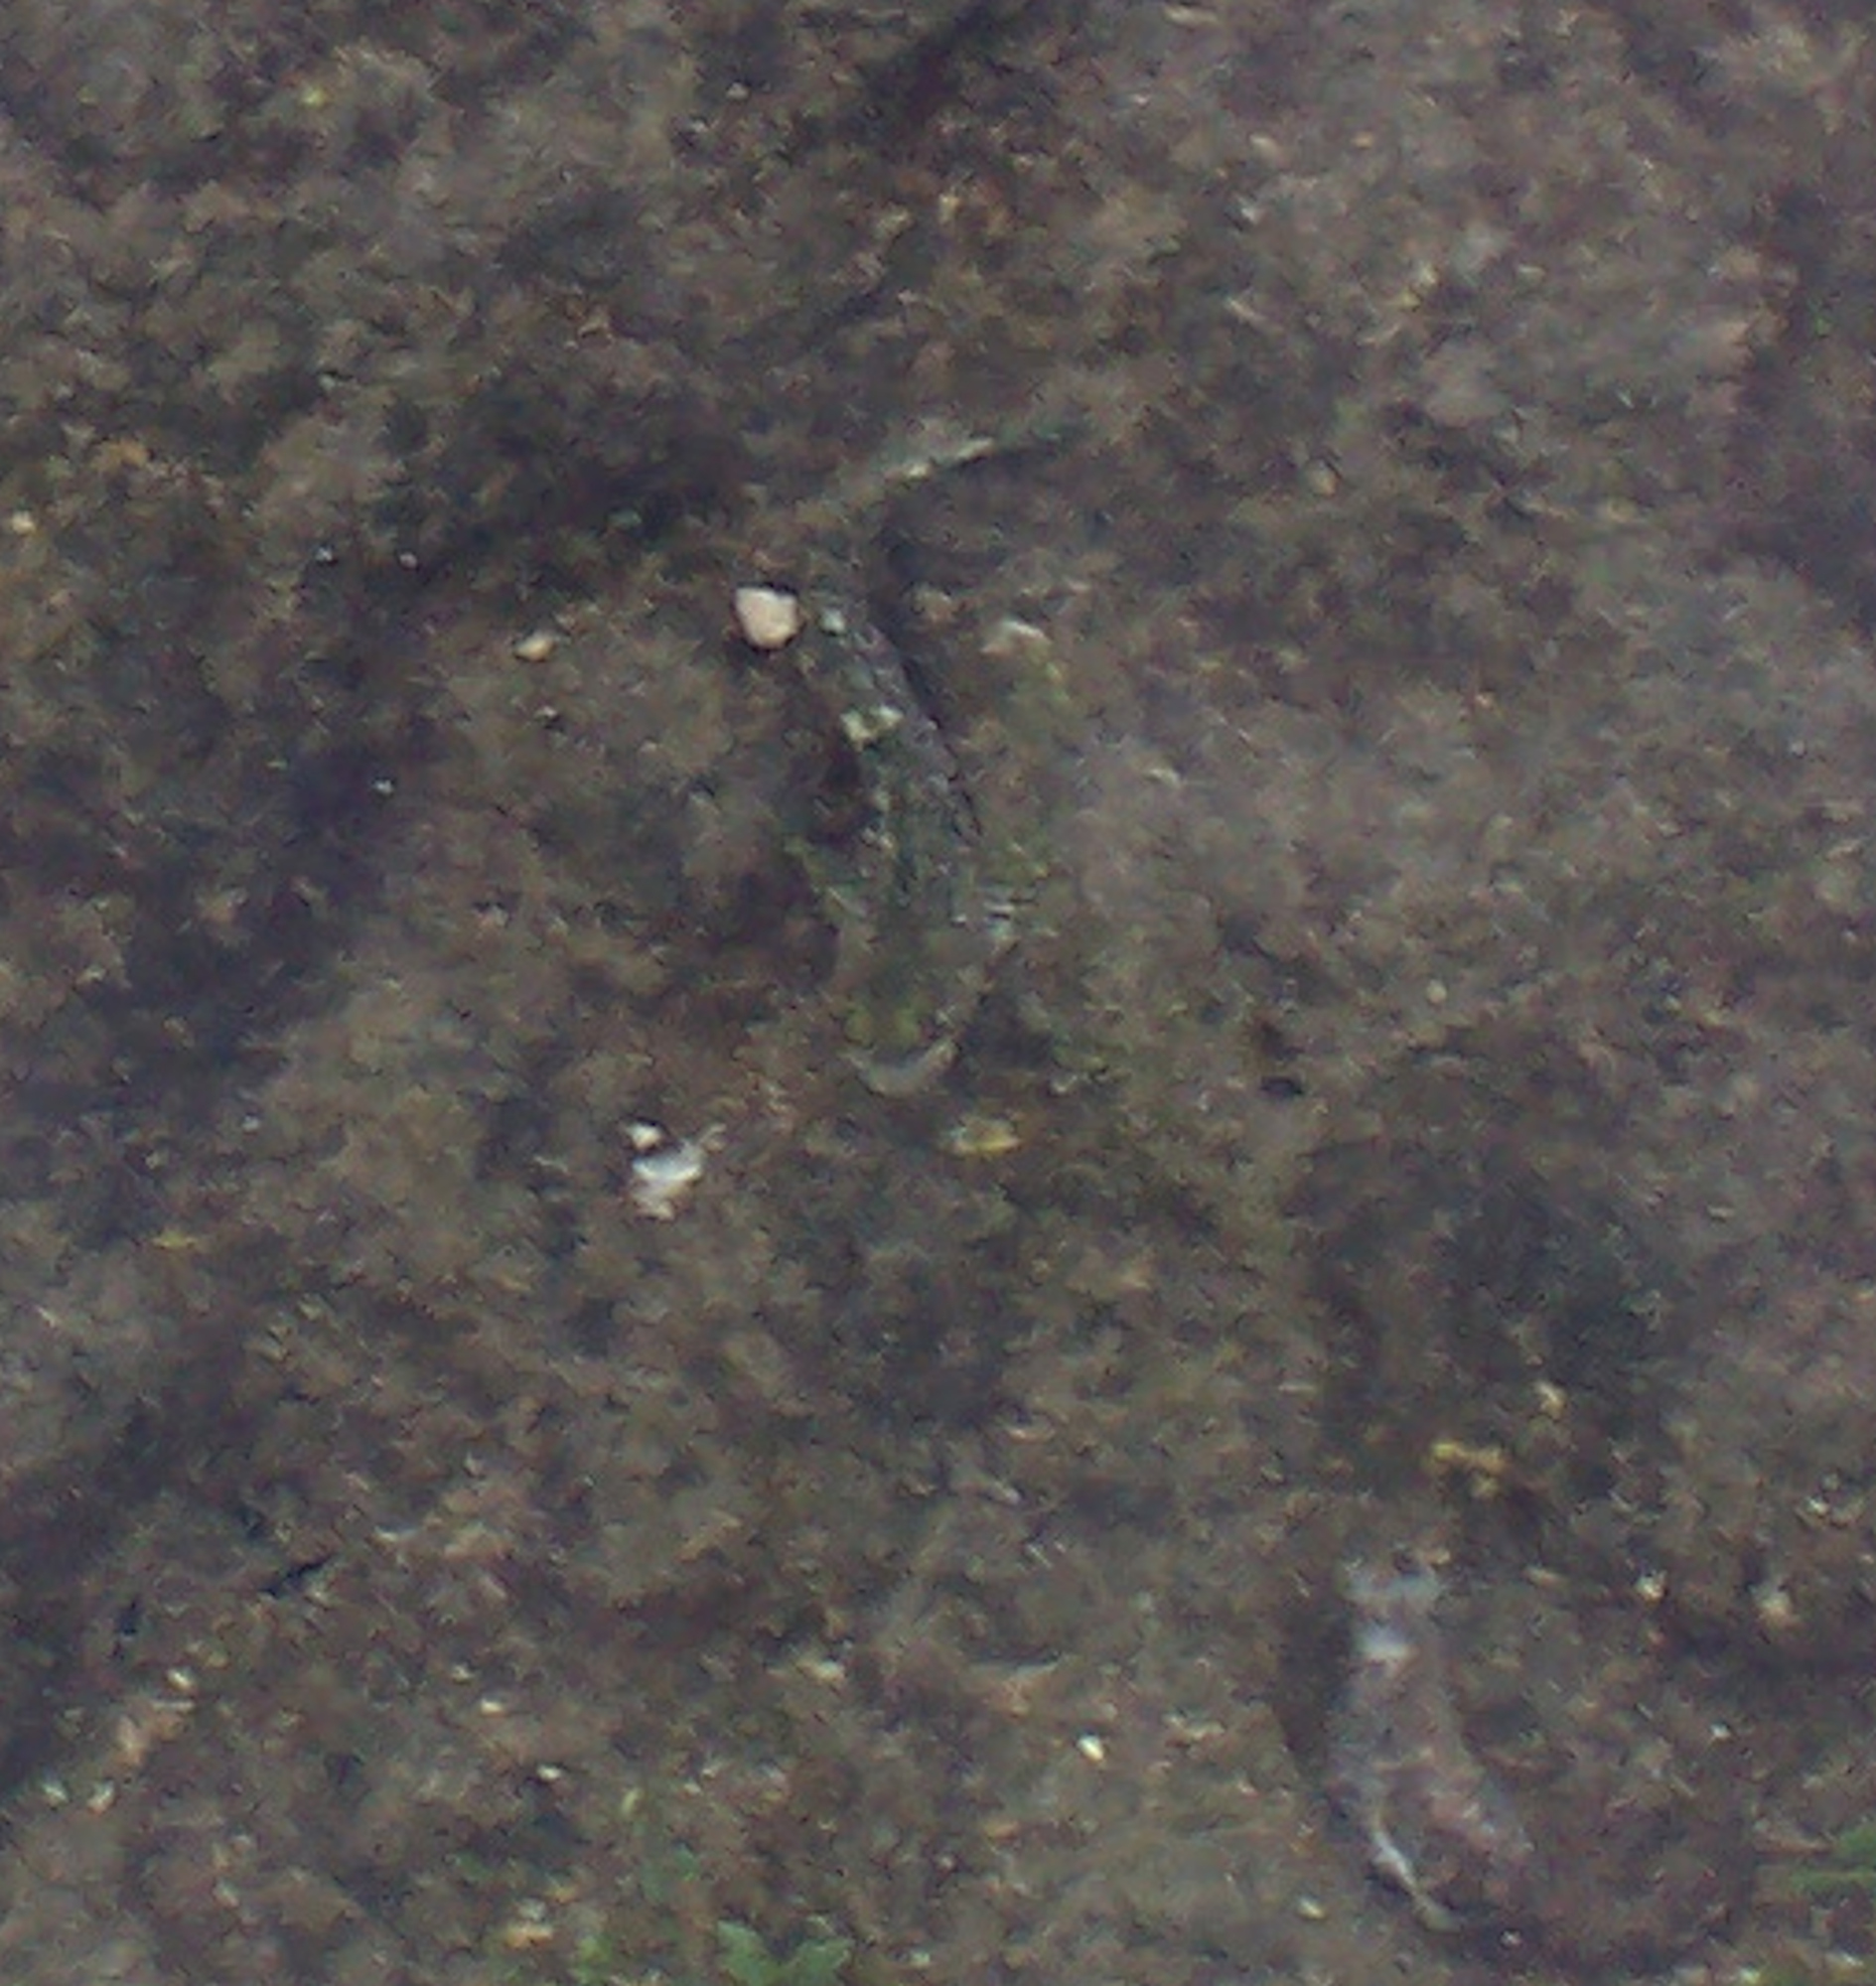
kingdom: Animalia
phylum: Chordata
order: Perciformes
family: Labrisomidae
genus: Dialommus
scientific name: Dialommus macrocephalus
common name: Foureye rockskipper
